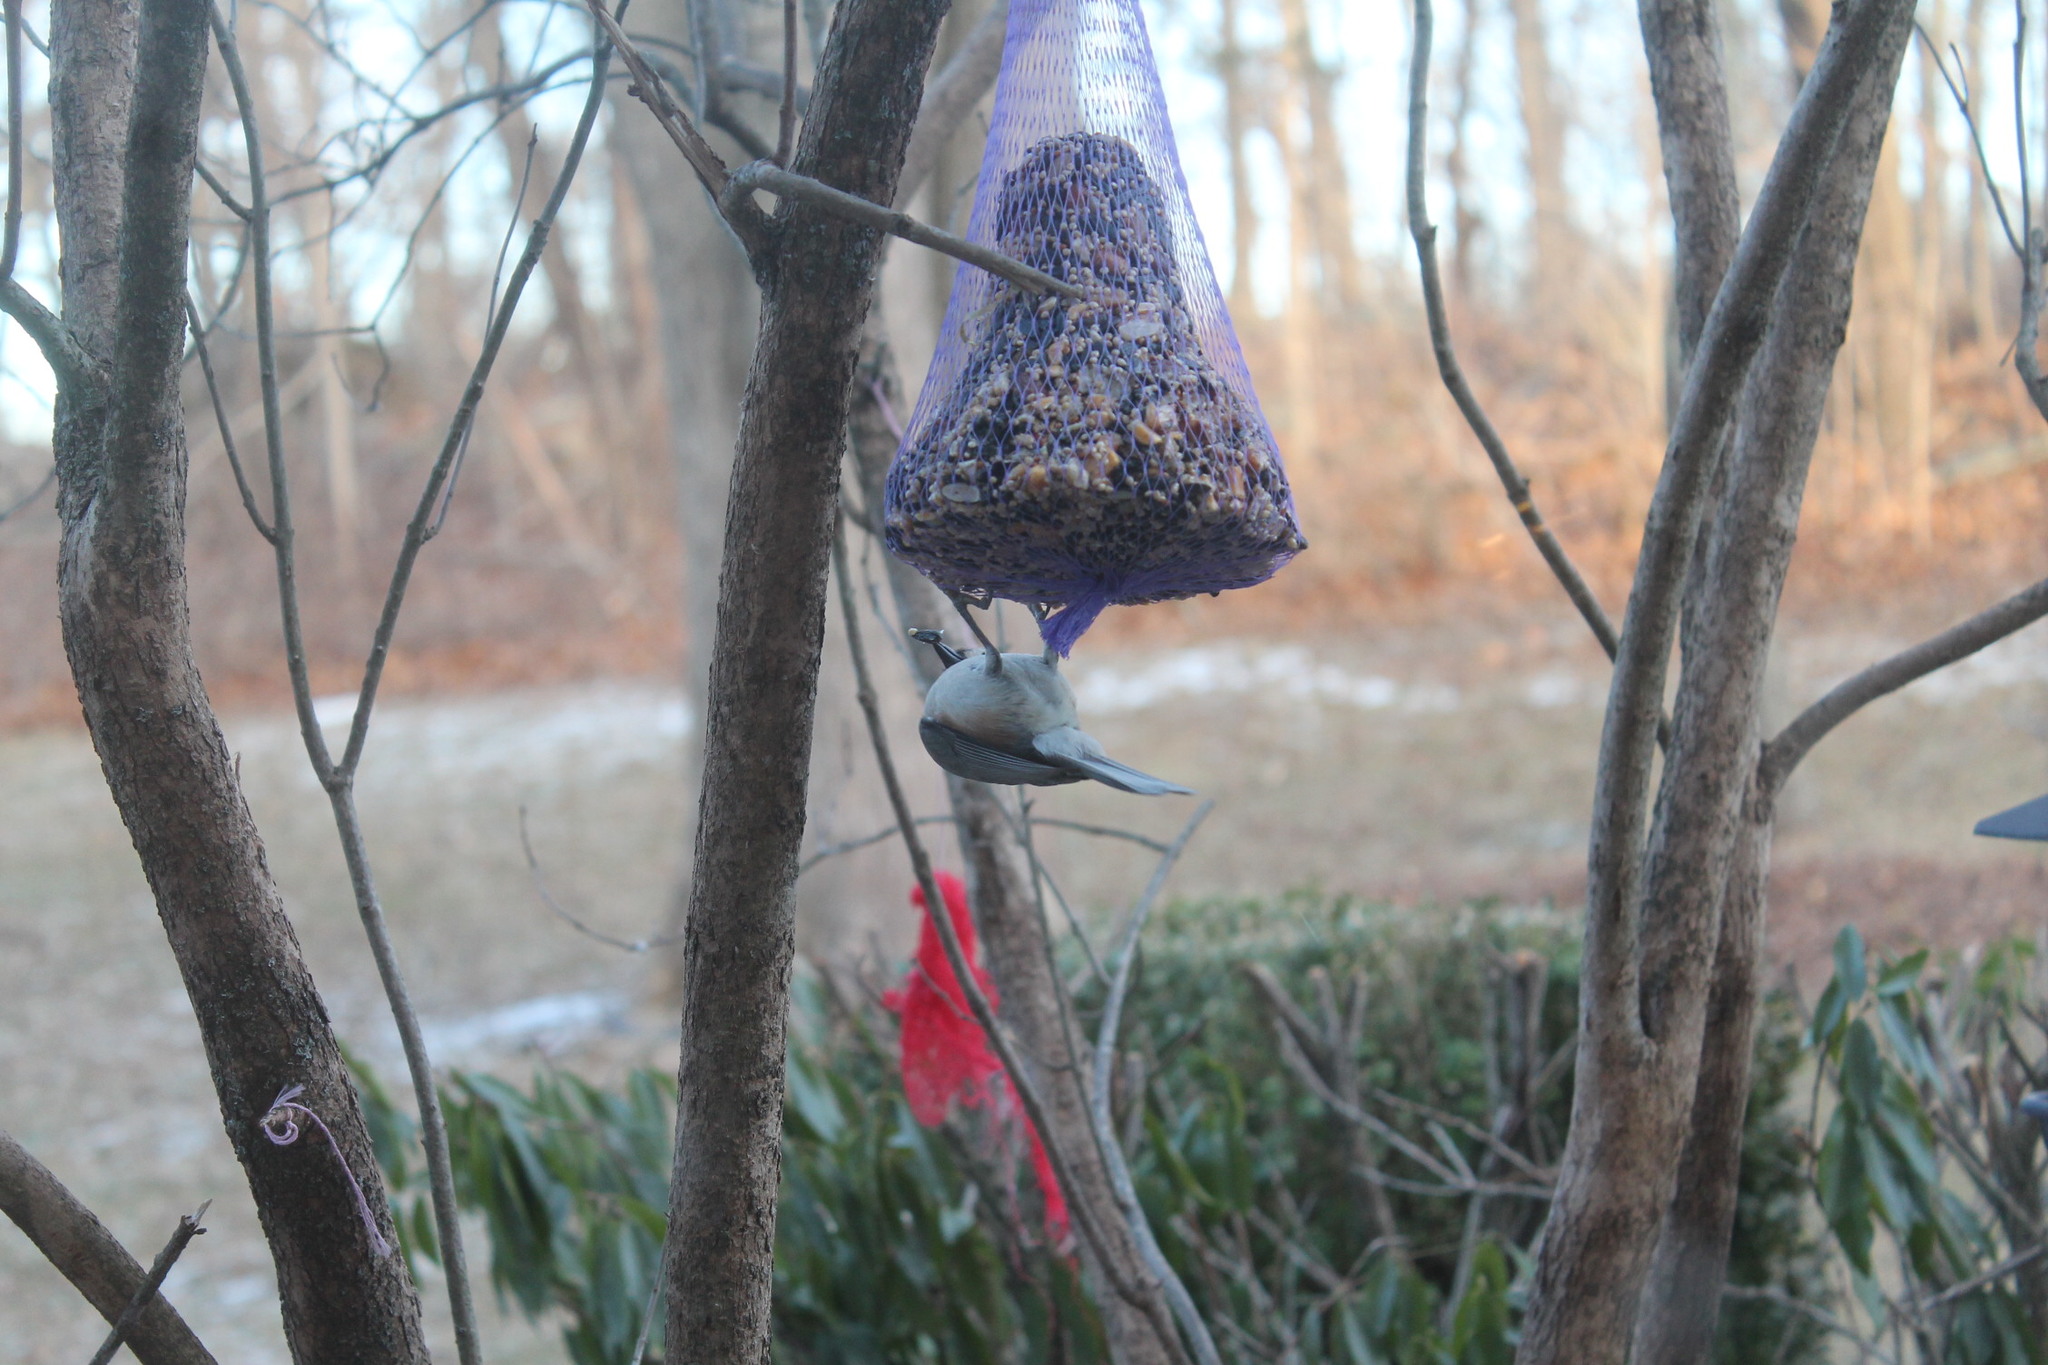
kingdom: Animalia
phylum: Chordata
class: Aves
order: Passeriformes
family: Paridae
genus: Baeolophus
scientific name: Baeolophus bicolor
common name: Tufted titmouse
